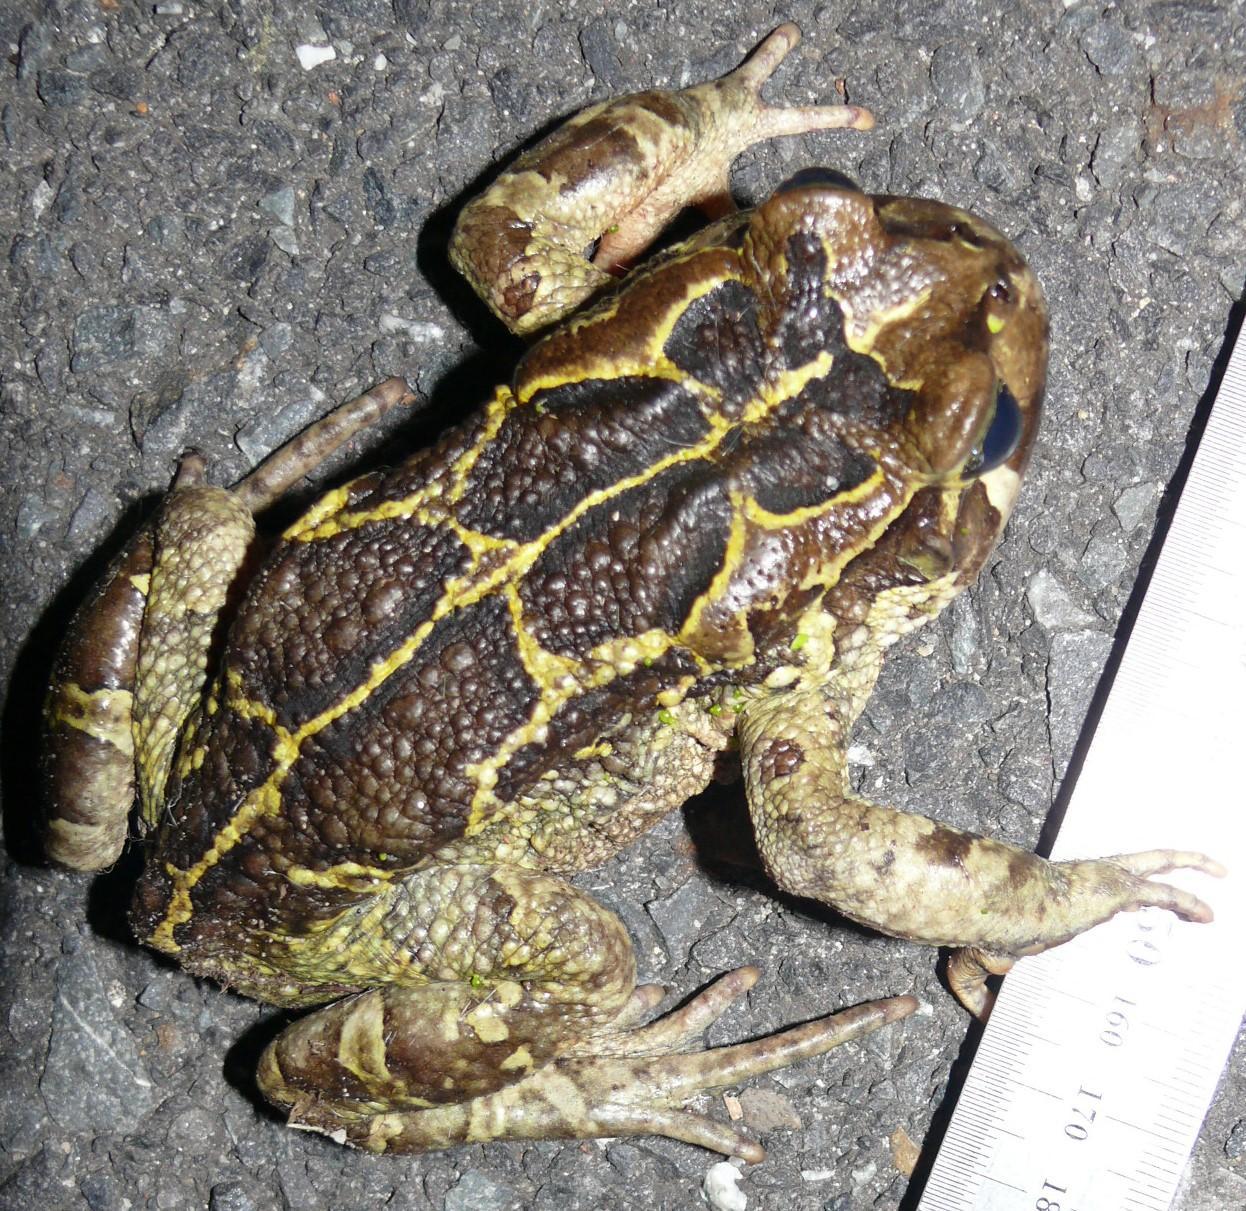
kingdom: Animalia
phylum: Chordata
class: Amphibia
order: Anura
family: Bufonidae
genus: Sclerophrys
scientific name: Sclerophrys pantherina
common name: Panther toad
